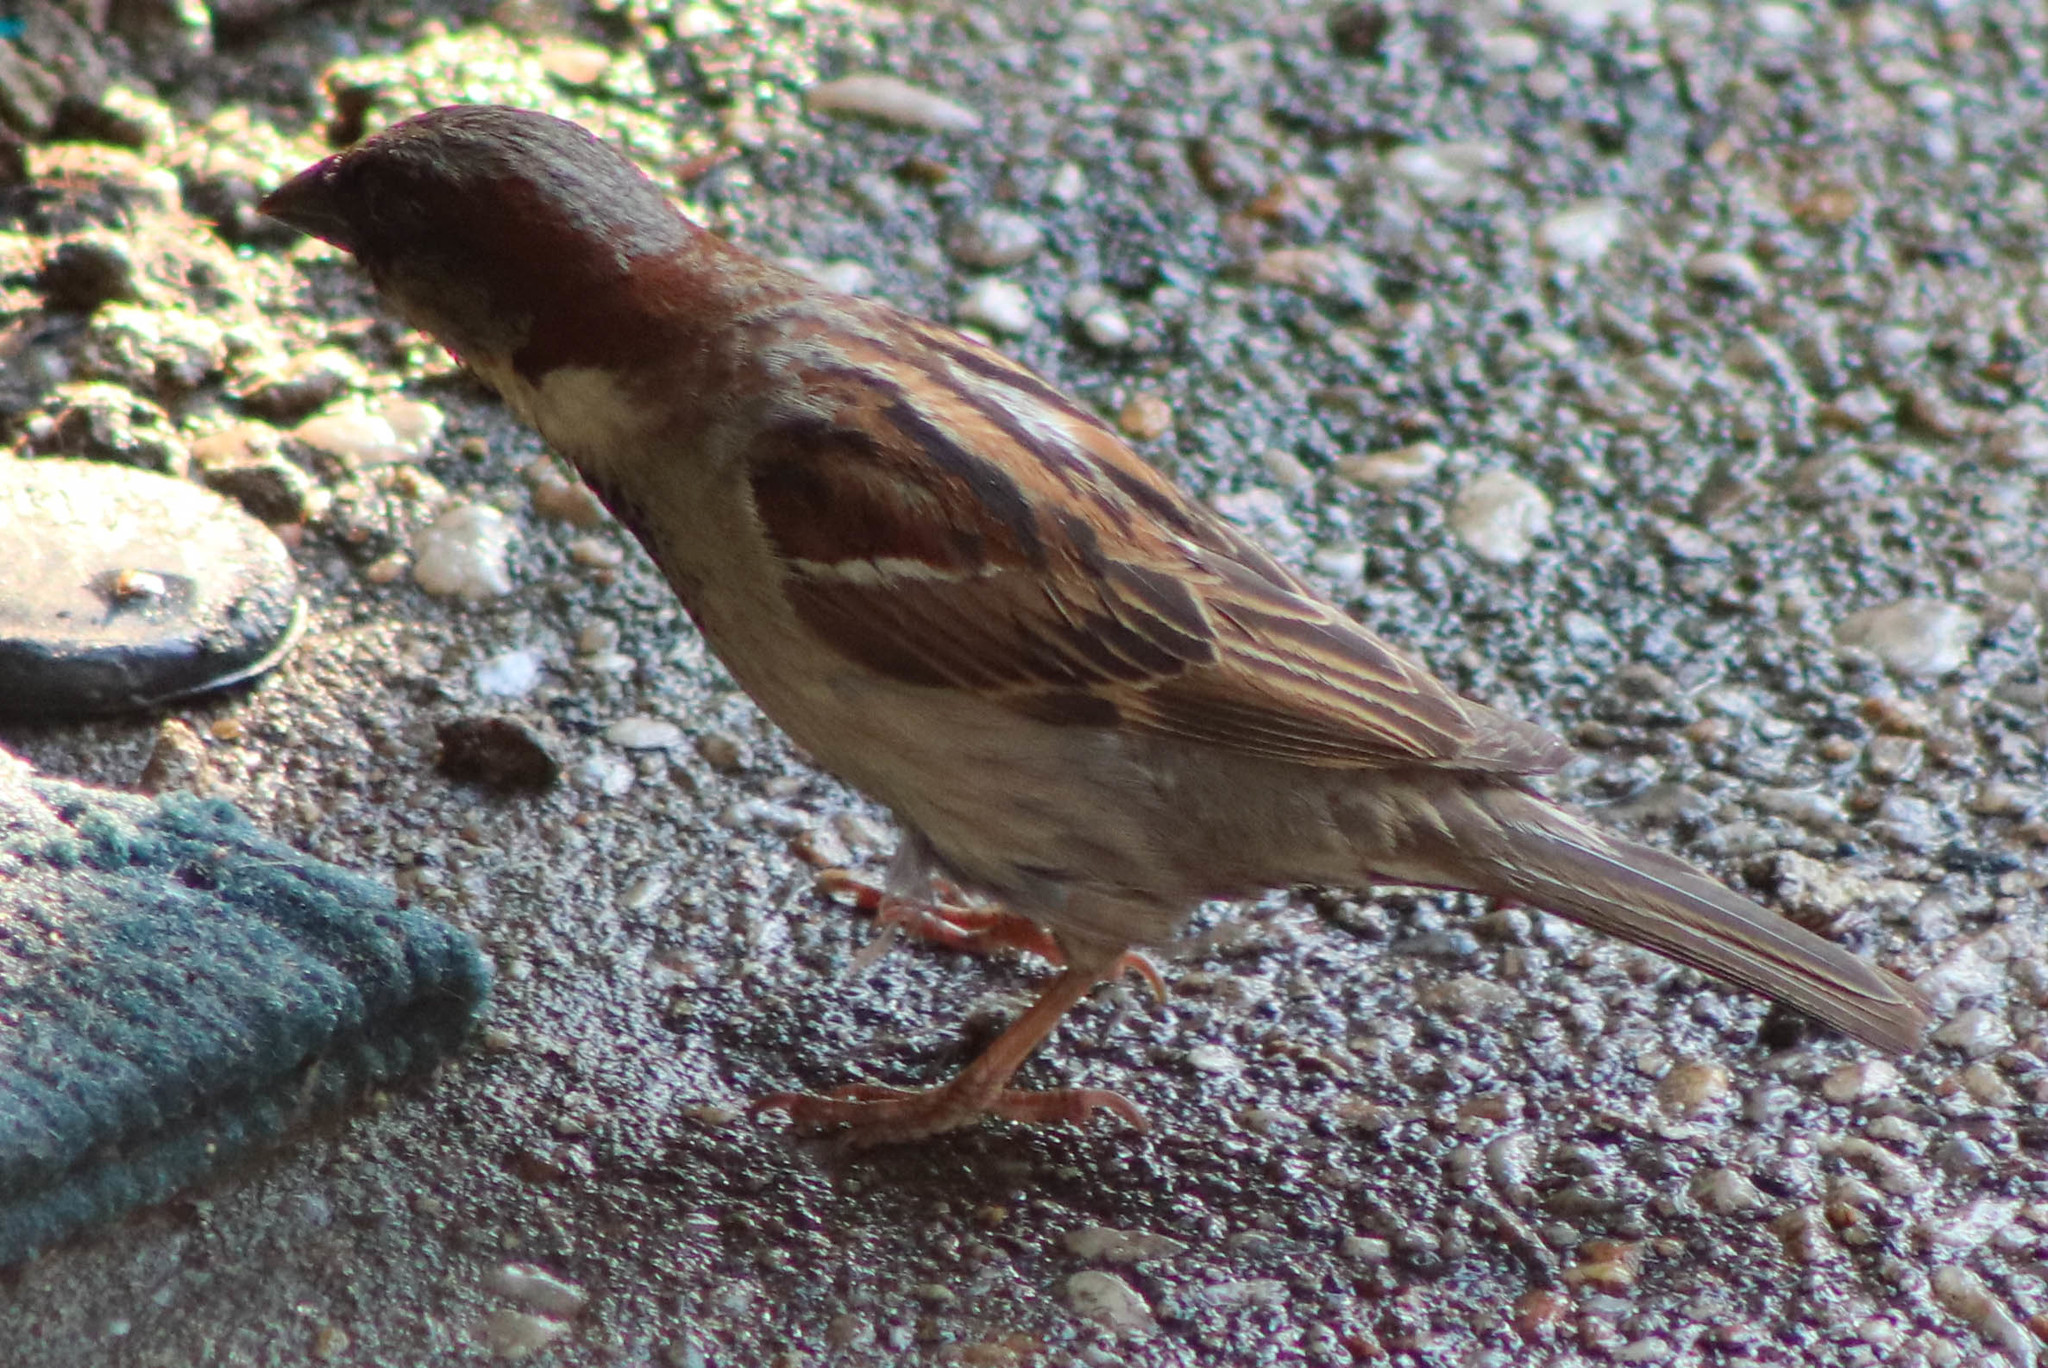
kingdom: Animalia
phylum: Chordata
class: Aves
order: Passeriformes
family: Passeridae
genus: Passer
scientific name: Passer domesticus
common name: House sparrow
